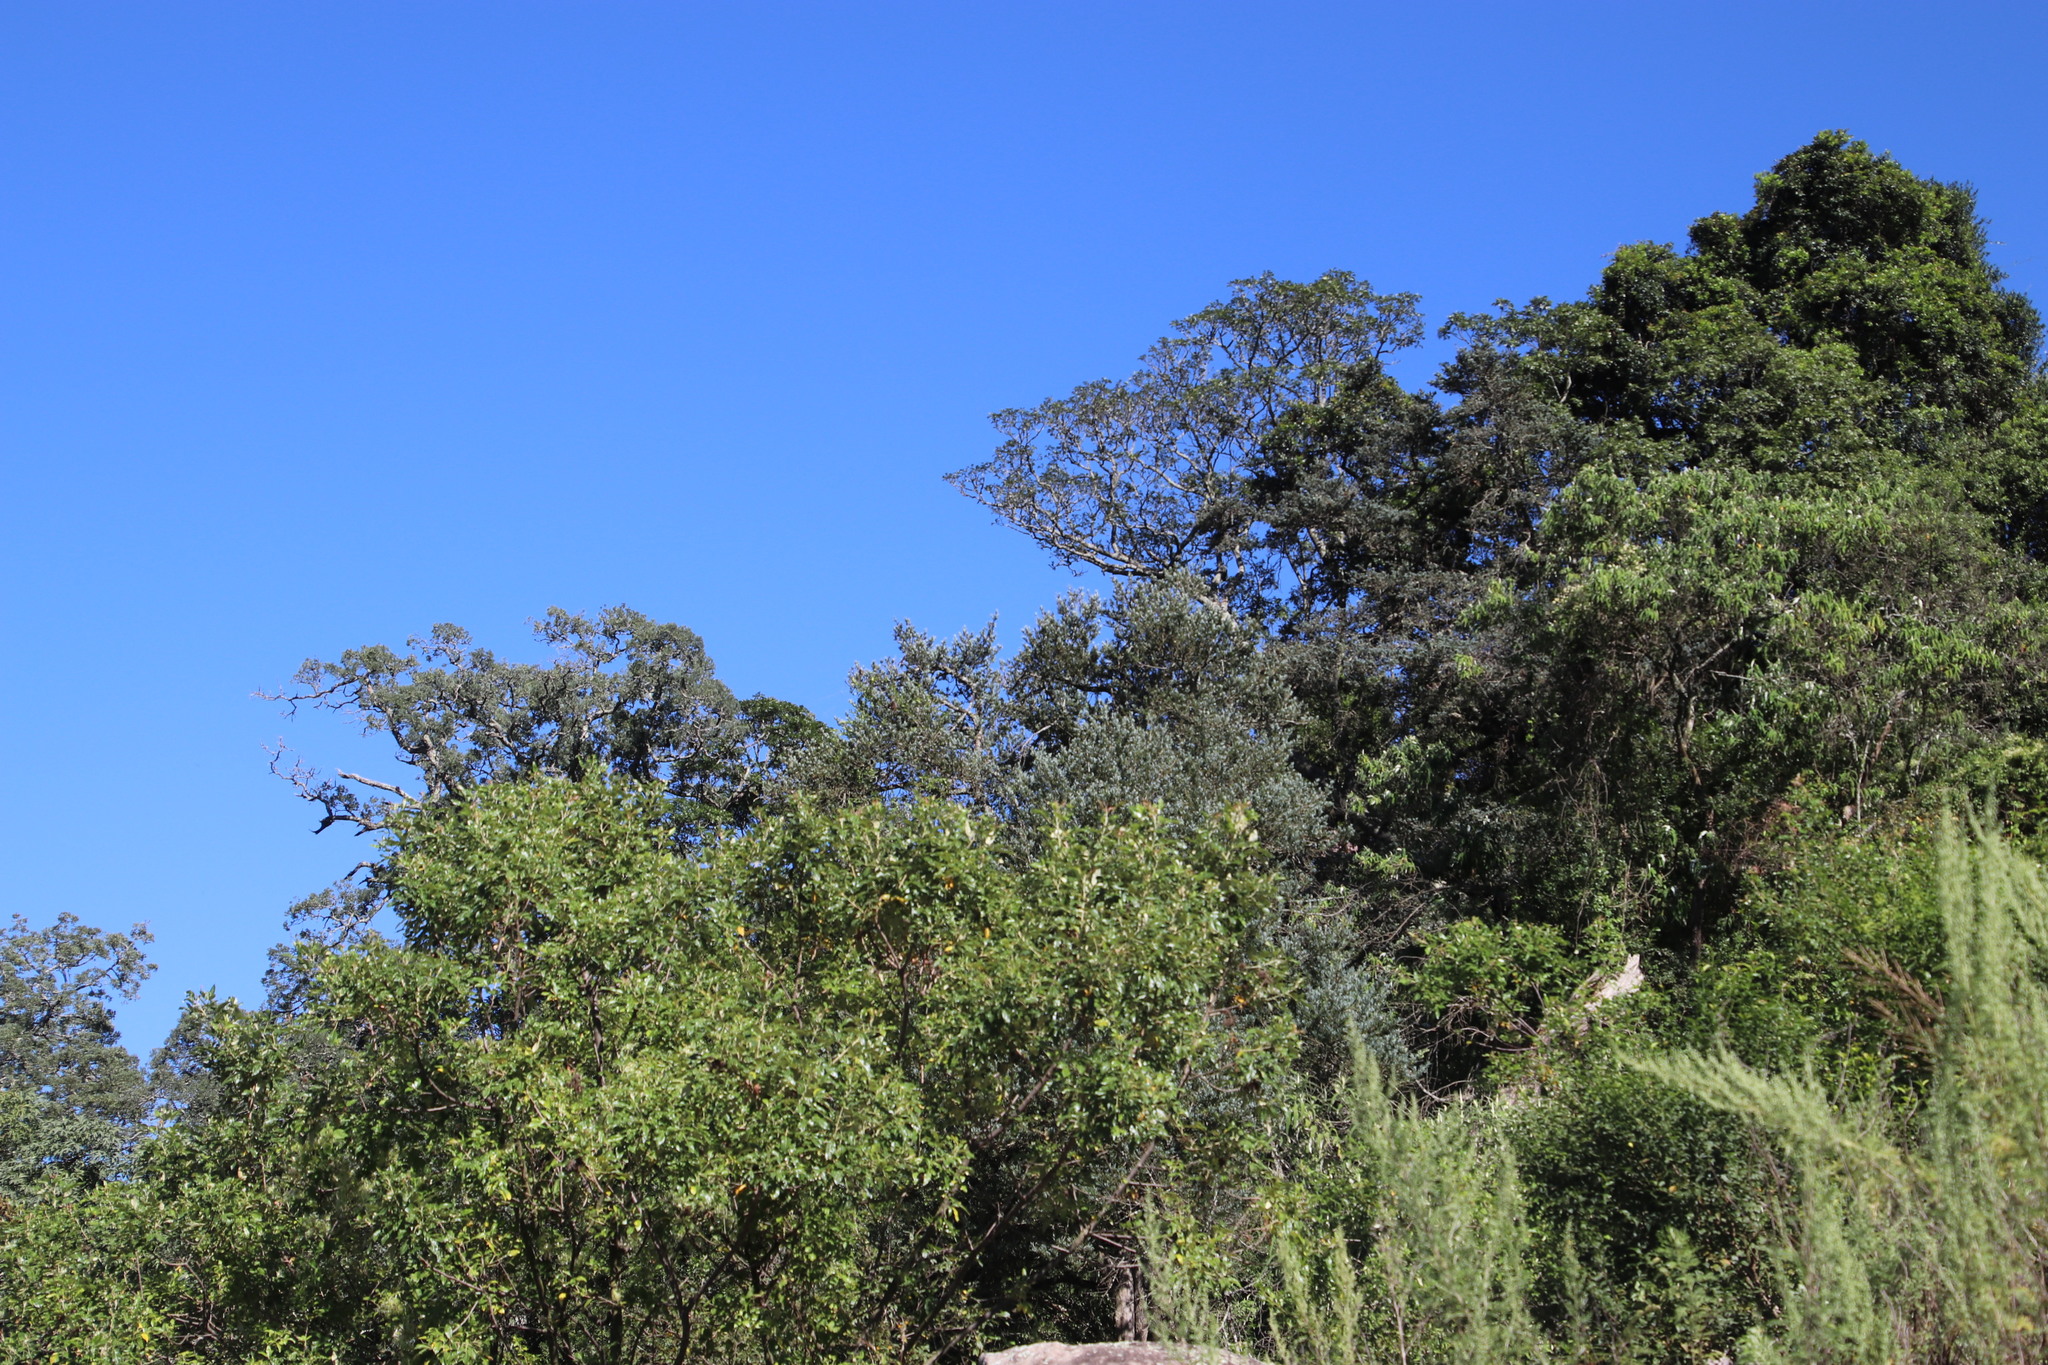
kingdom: Plantae
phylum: Tracheophyta
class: Pinopsida
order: Pinales
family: Podocarpaceae
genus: Afrocarpus
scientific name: Afrocarpus falcatus
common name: Bastard yellowwood
